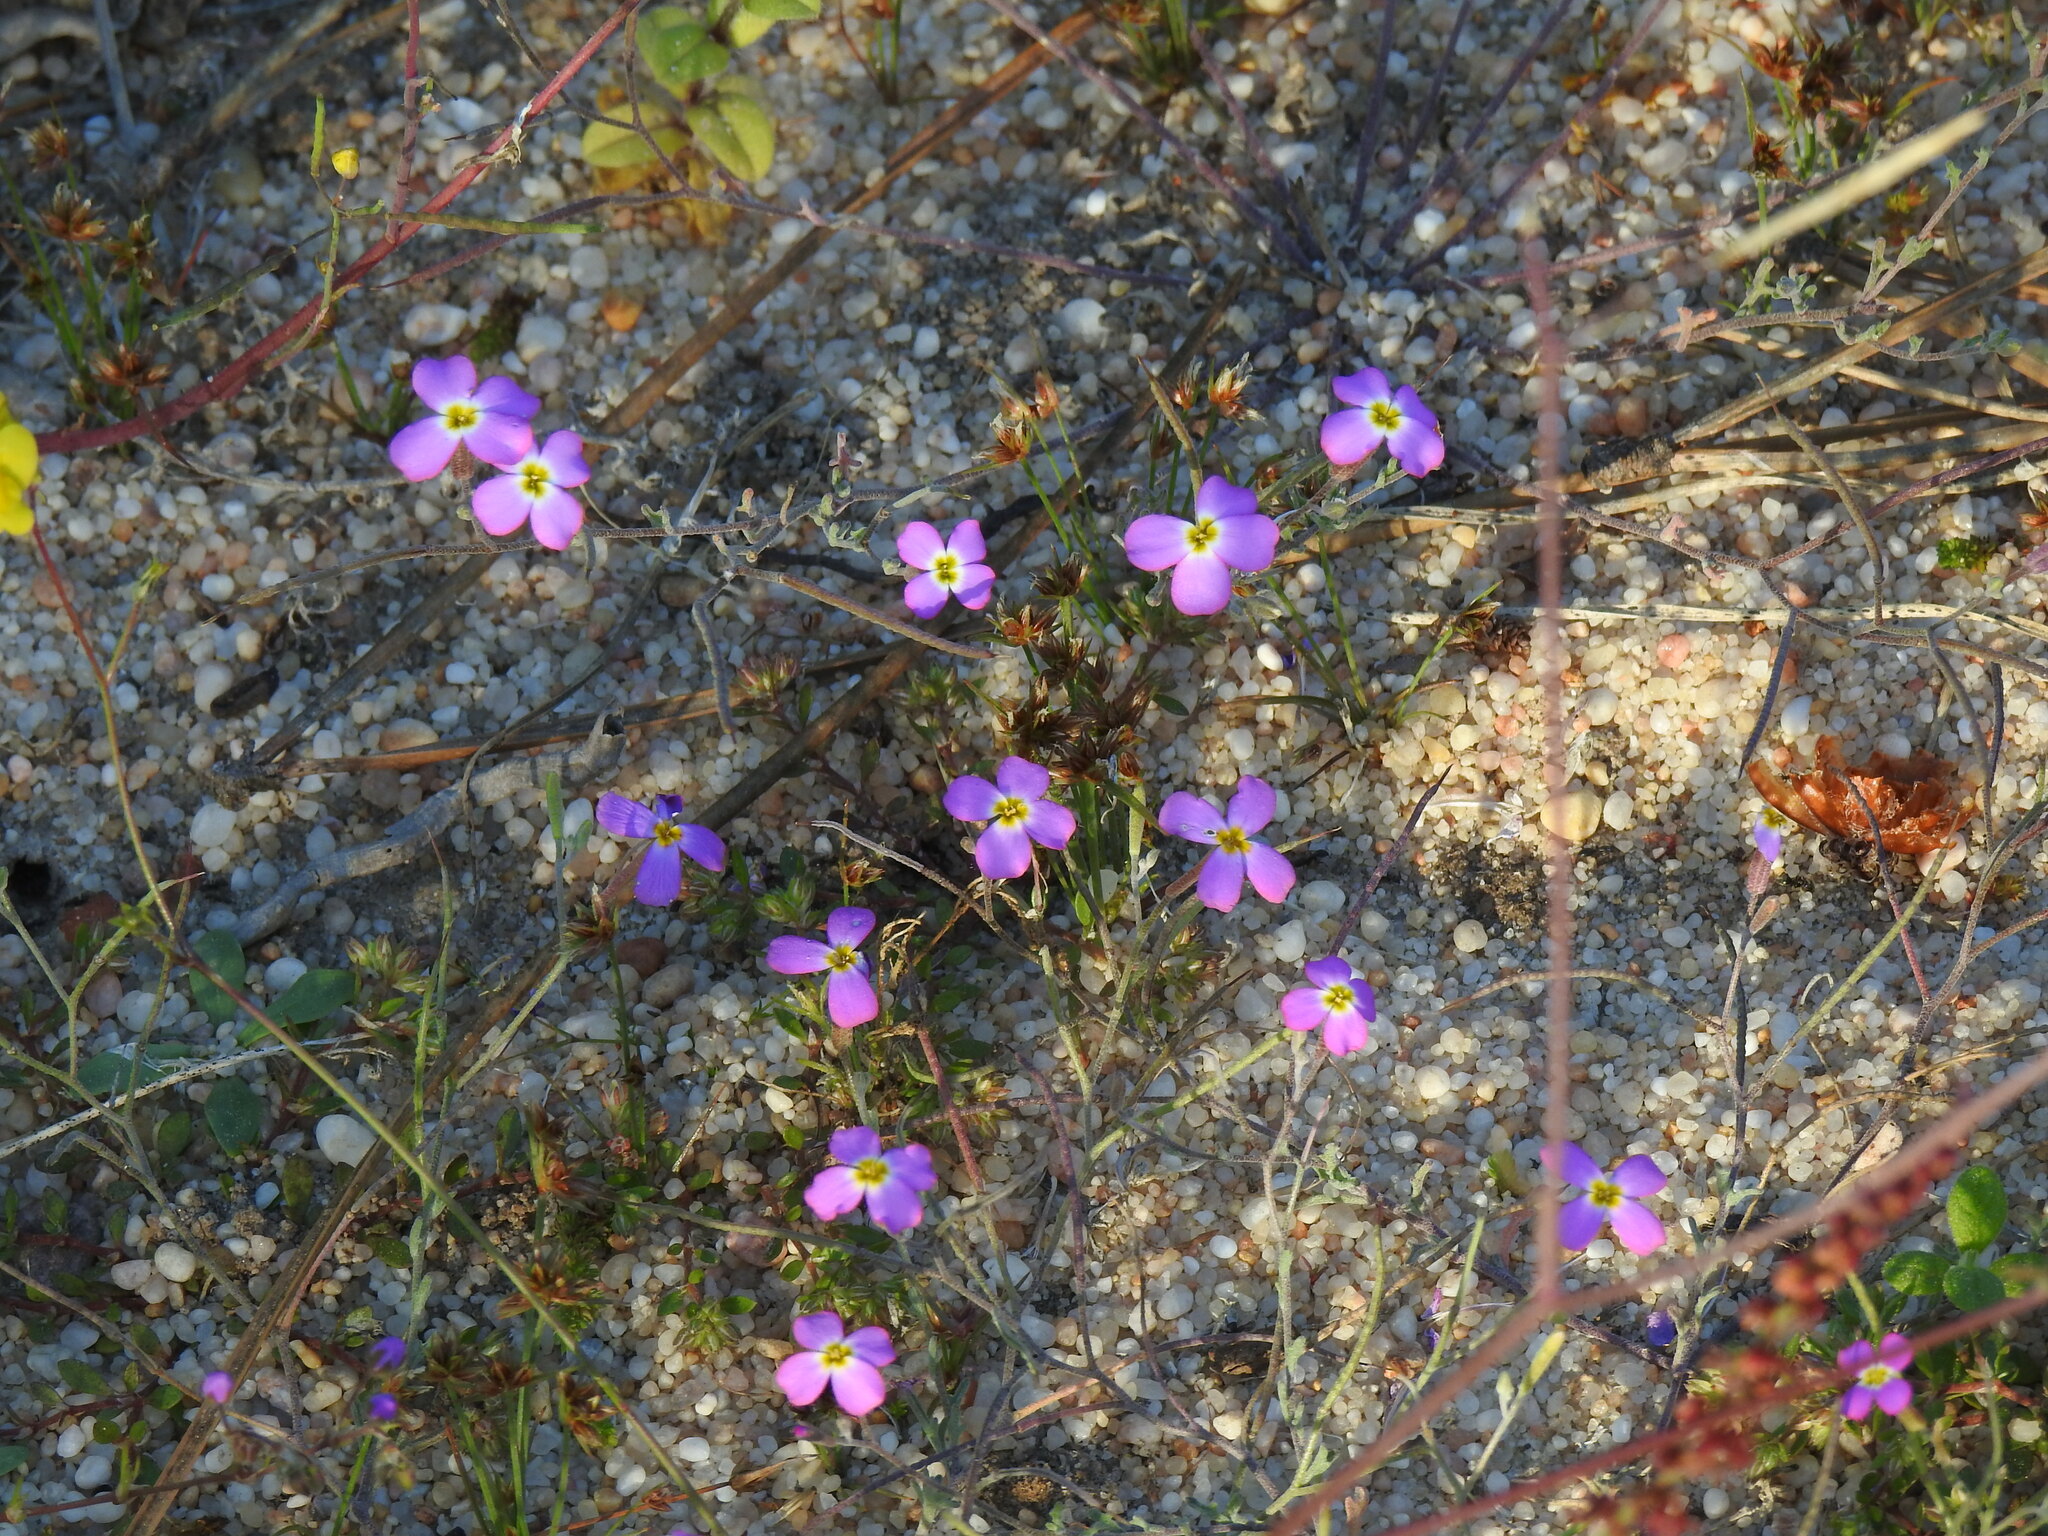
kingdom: Plantae
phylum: Tracheophyta
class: Magnoliopsida
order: Brassicales
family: Brassicaceae
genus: Marcuskochia
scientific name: Marcuskochia triloba
